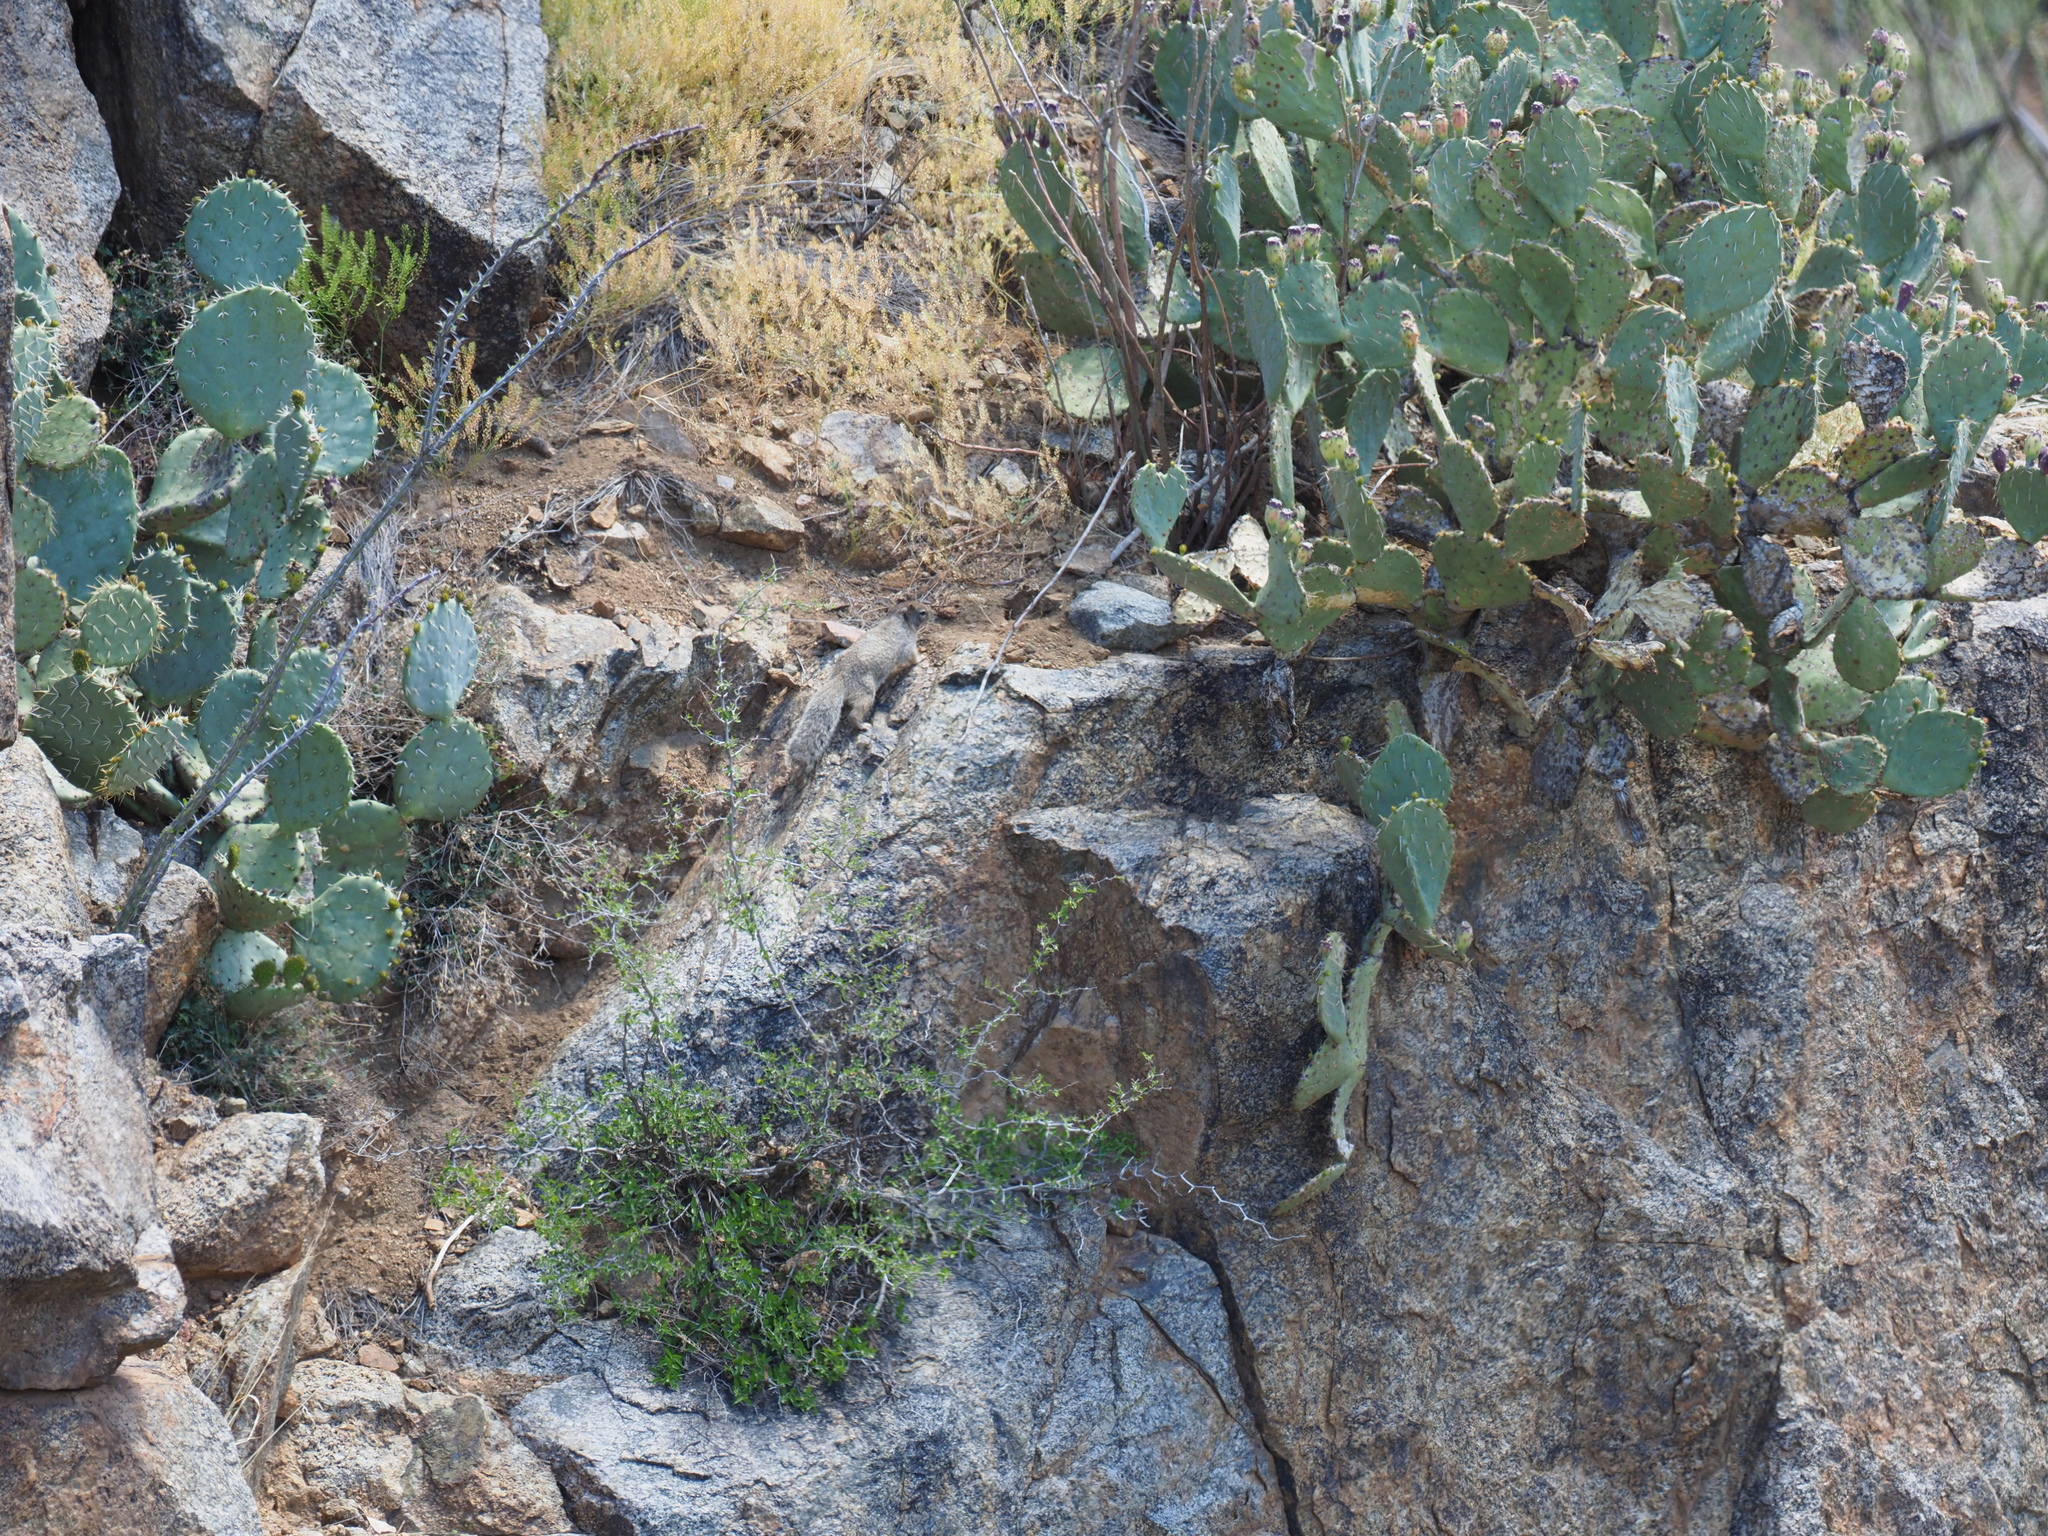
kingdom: Animalia
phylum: Chordata
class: Mammalia
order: Rodentia
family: Sciuridae
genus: Otospermophilus
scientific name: Otospermophilus variegatus
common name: Rock squirrel
